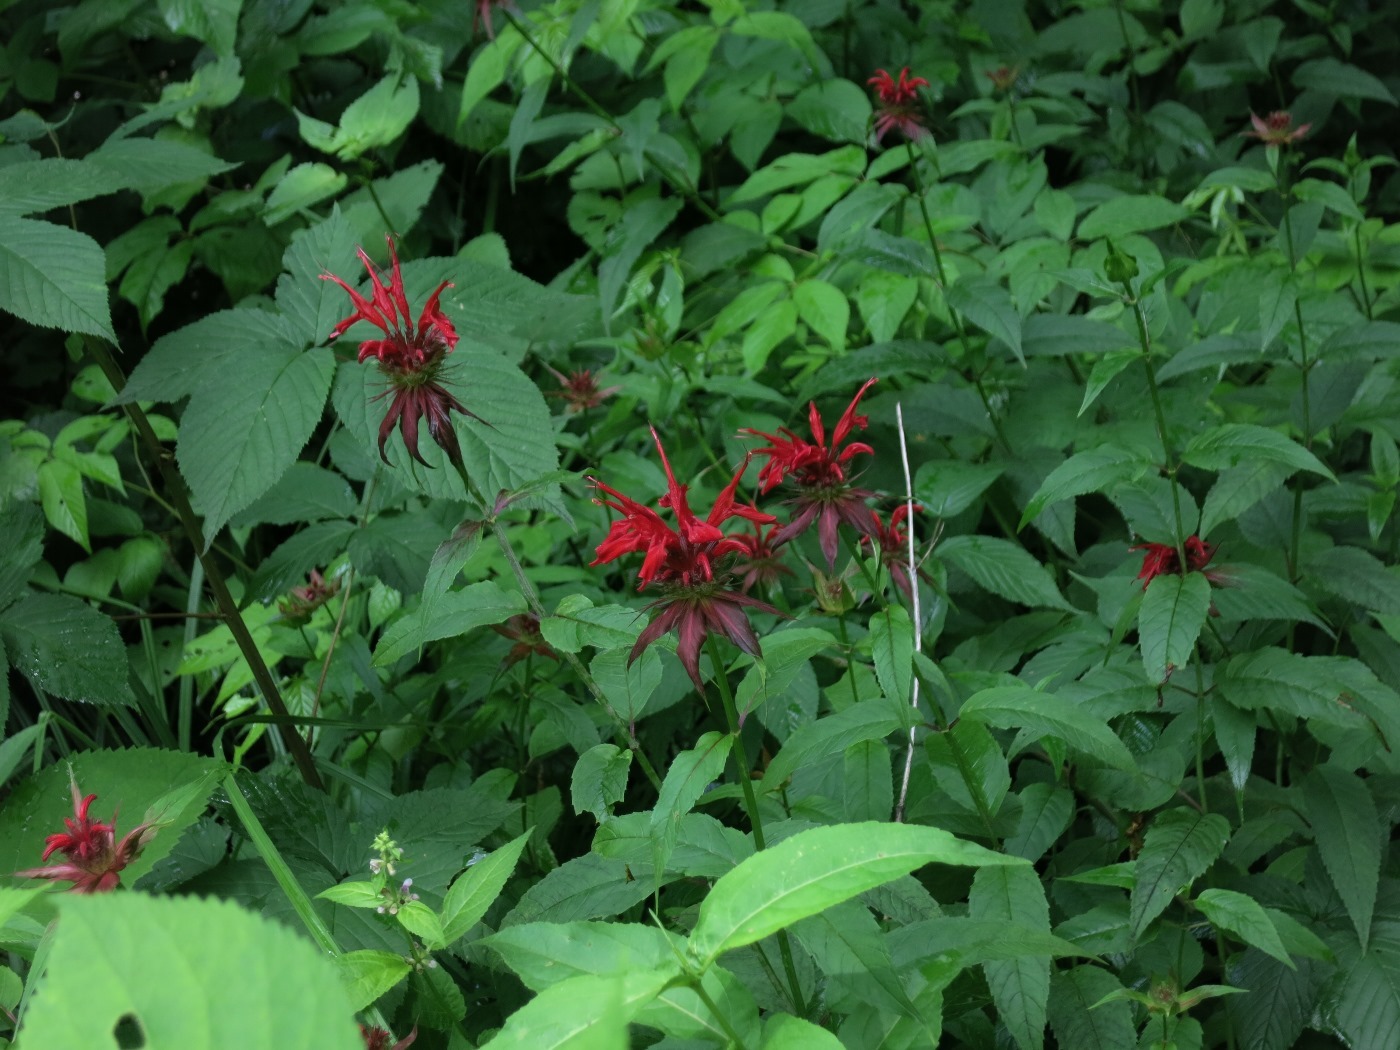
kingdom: Plantae
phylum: Tracheophyta
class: Magnoliopsida
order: Lamiales
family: Lamiaceae
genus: Monarda
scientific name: Monarda didyma
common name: Beebalm
